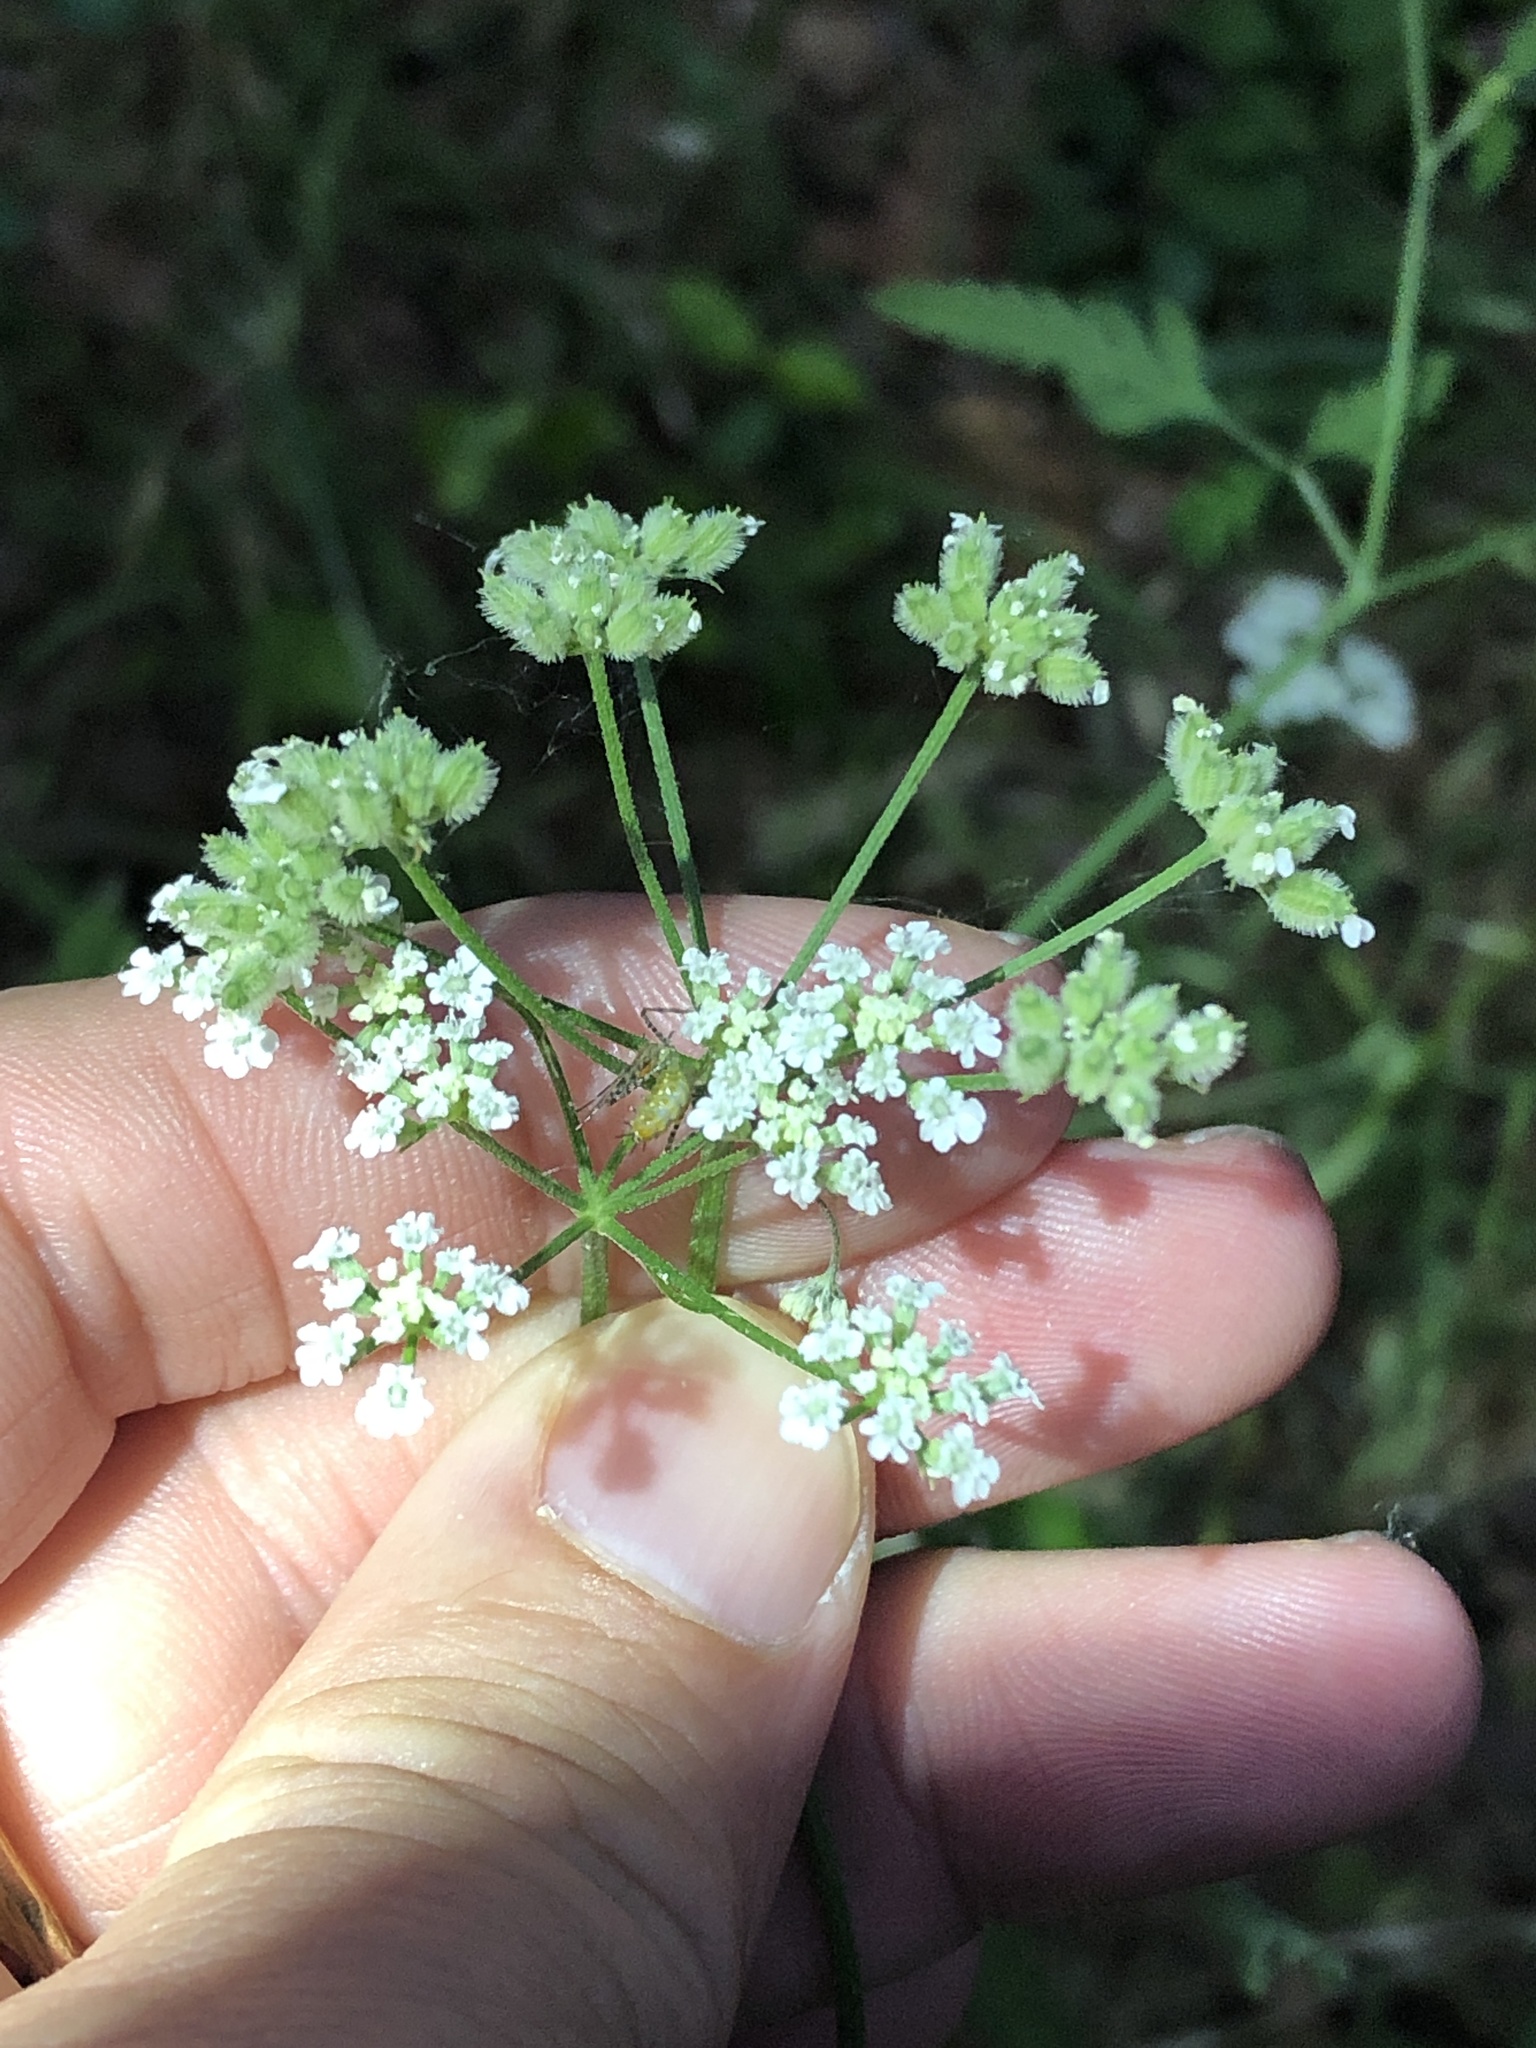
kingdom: Plantae
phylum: Tracheophyta
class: Magnoliopsida
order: Apiales
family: Apiaceae
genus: Torilis
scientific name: Torilis arvensis
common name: Spreading hedge-parsley
